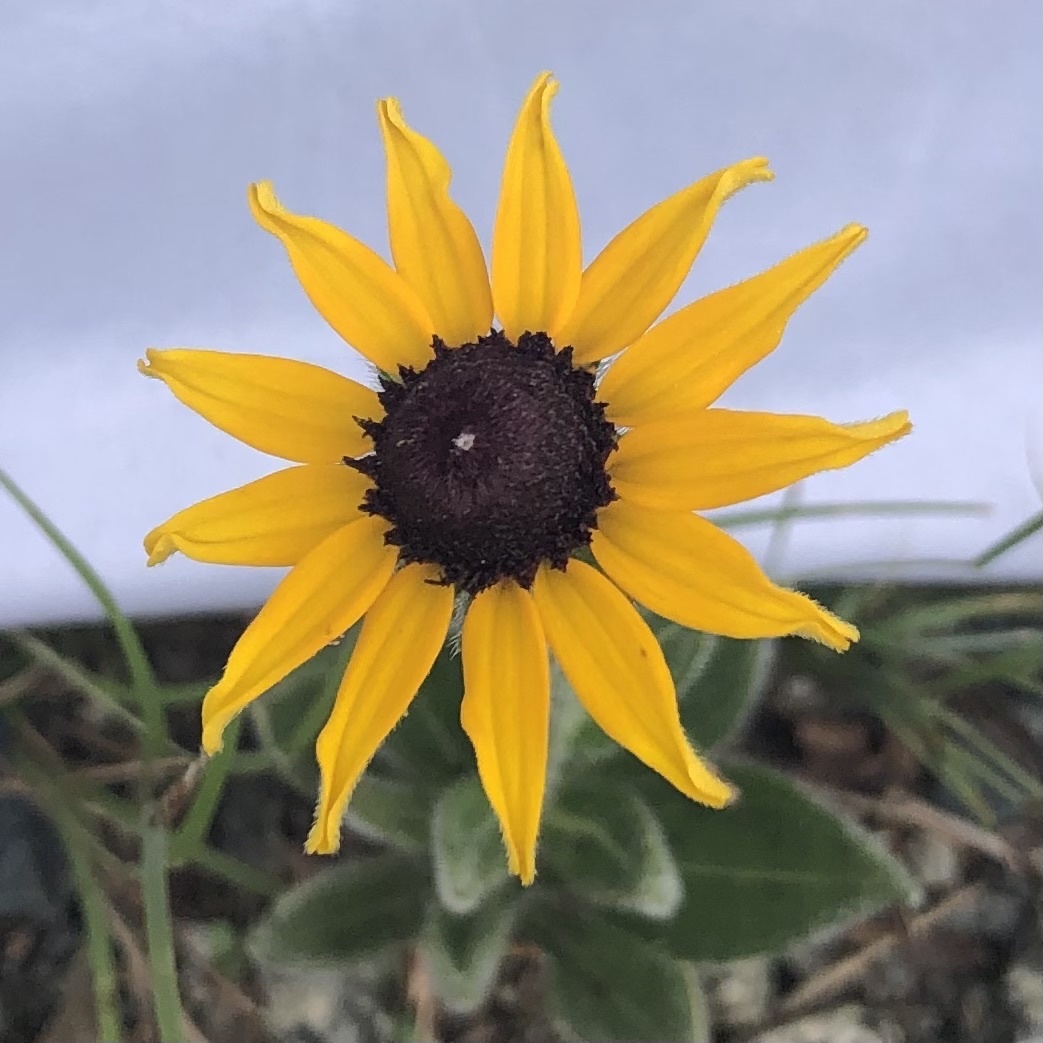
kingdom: Plantae
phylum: Tracheophyta
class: Magnoliopsida
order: Asterales
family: Asteraceae
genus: Rudbeckia
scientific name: Rudbeckia hirta
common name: Black-eyed-susan
